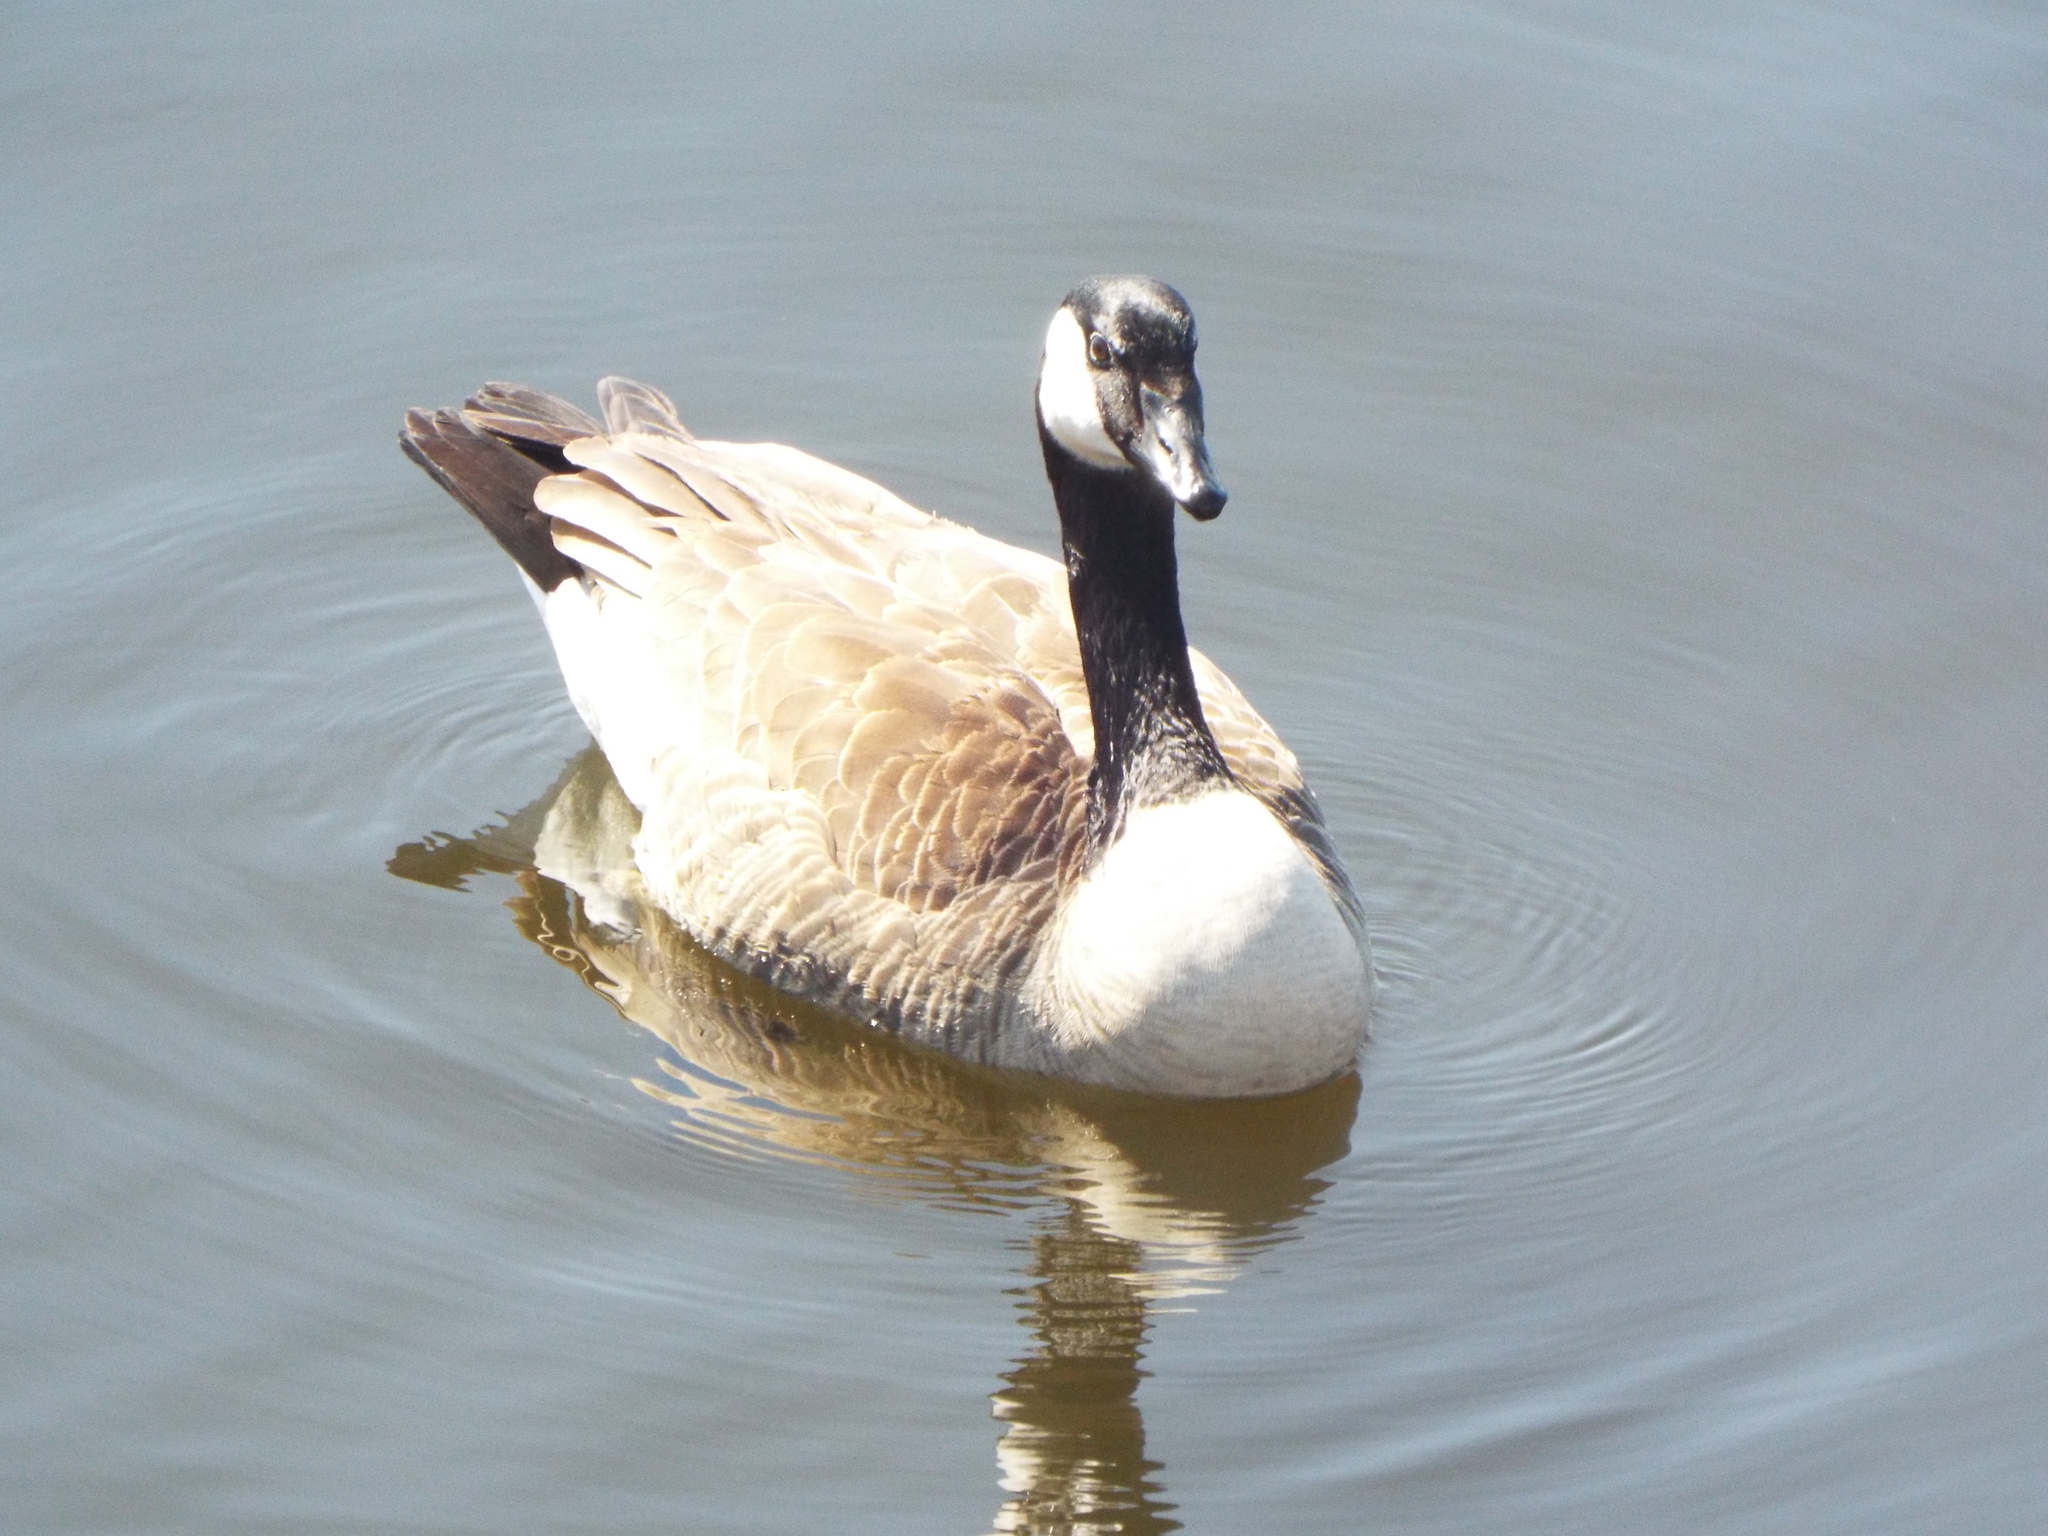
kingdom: Animalia
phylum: Chordata
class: Aves
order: Anseriformes
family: Anatidae
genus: Branta
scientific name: Branta canadensis
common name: Canada goose
